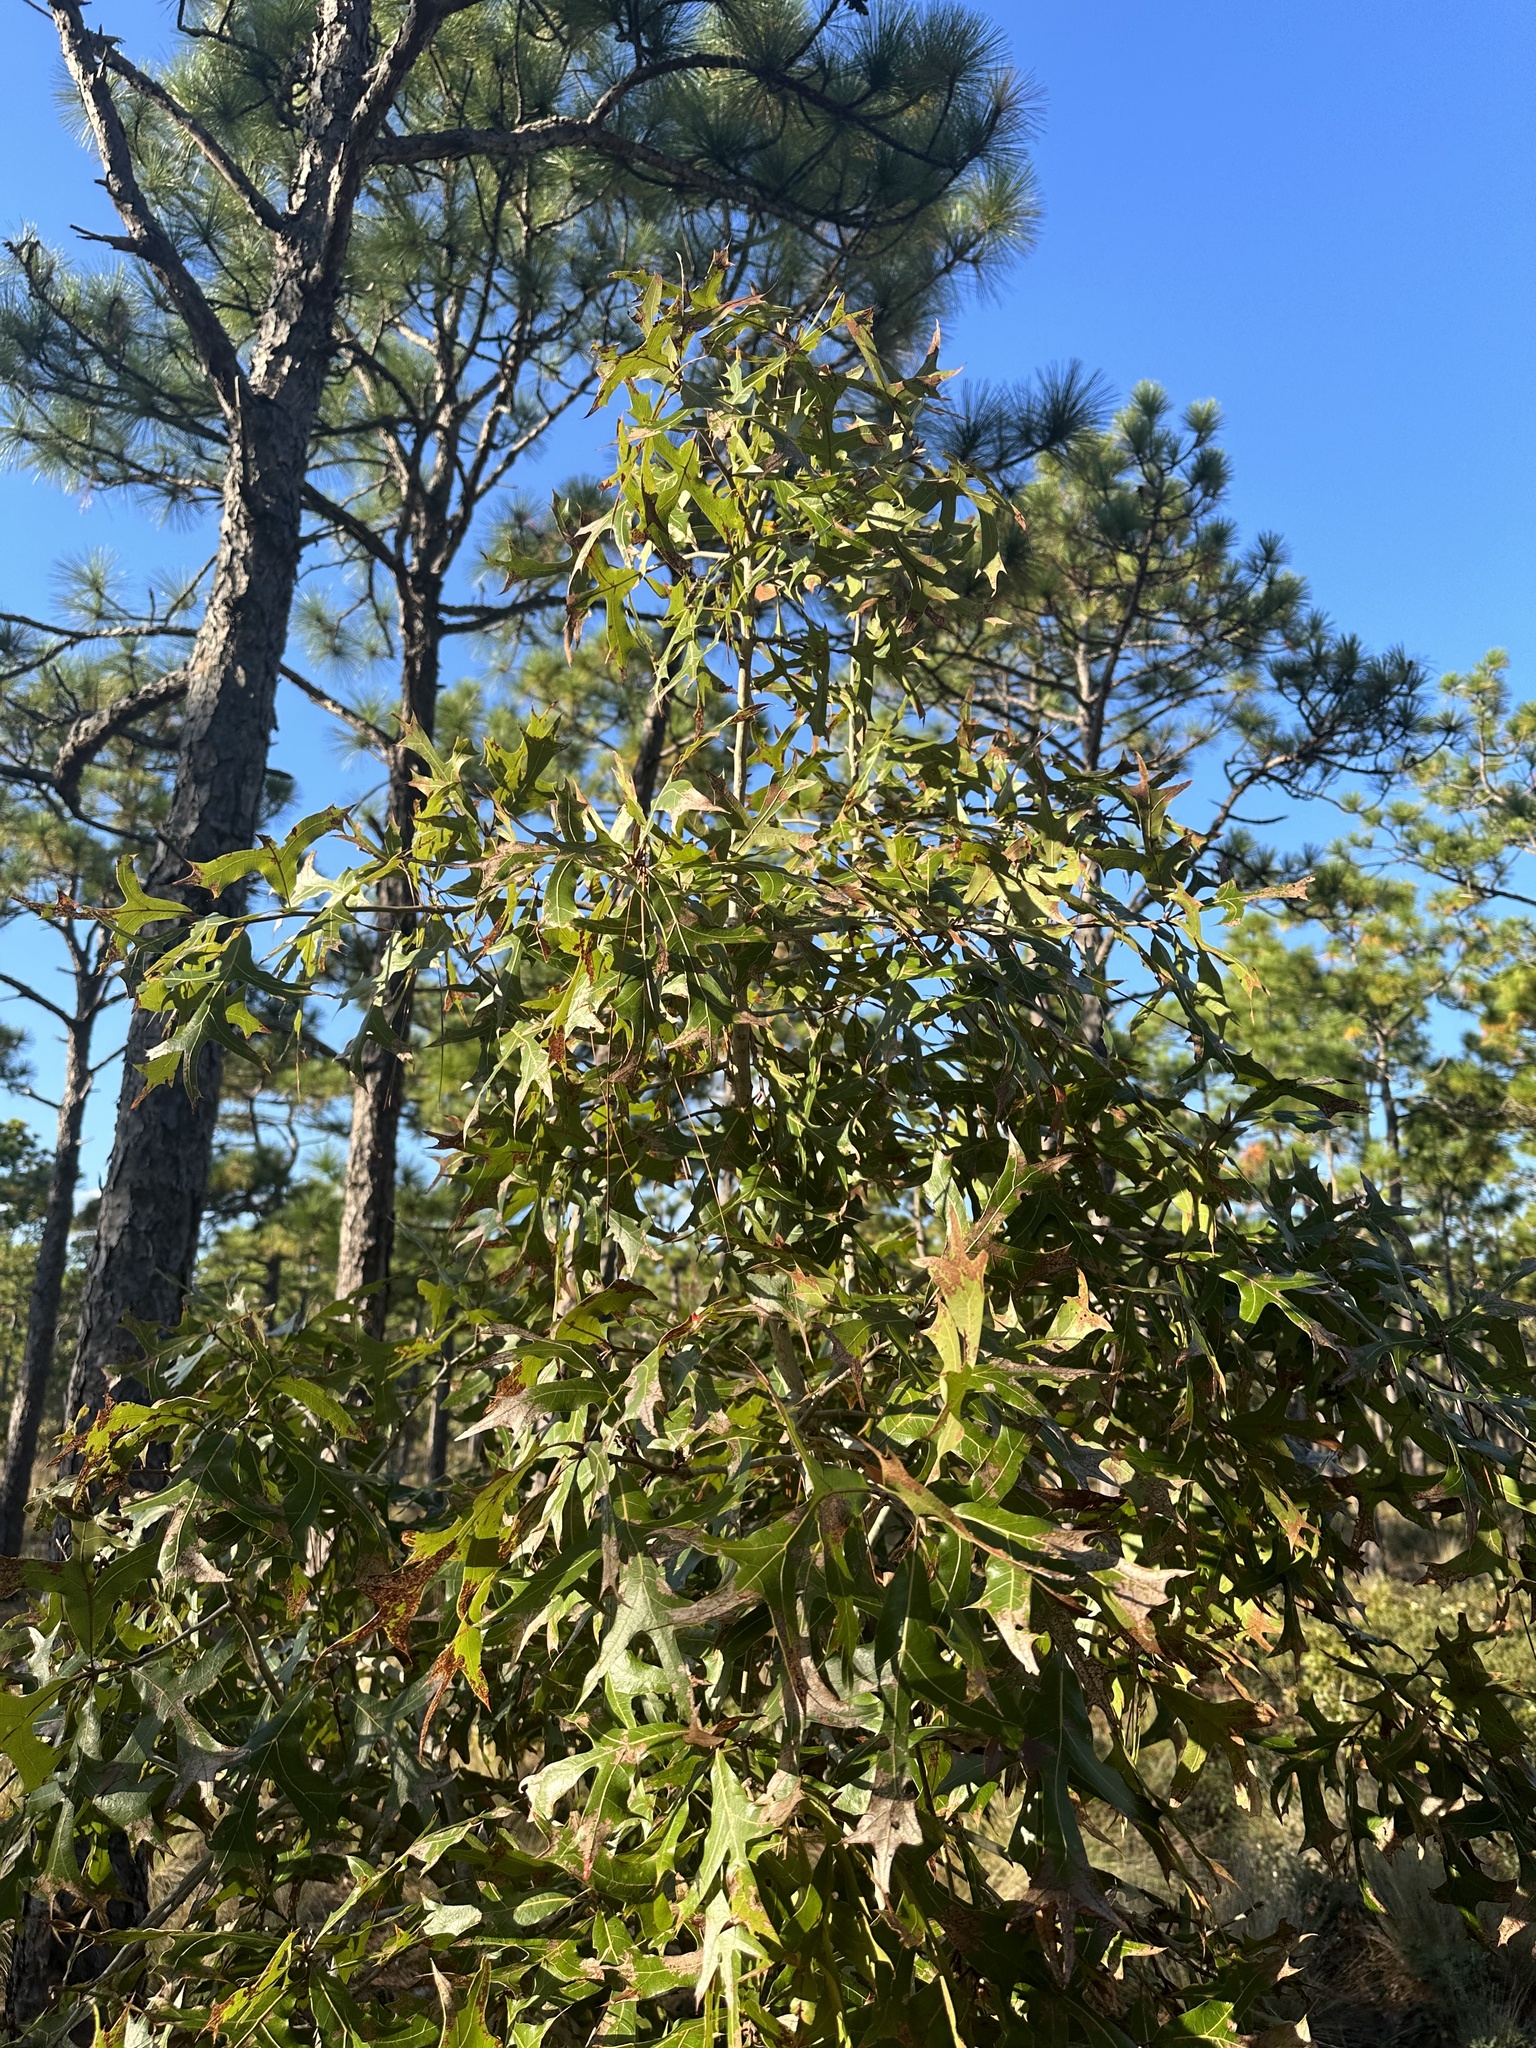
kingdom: Plantae
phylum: Tracheophyta
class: Magnoliopsida
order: Fagales
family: Fagaceae
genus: Quercus
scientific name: Quercus laevis
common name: Turkey oak
